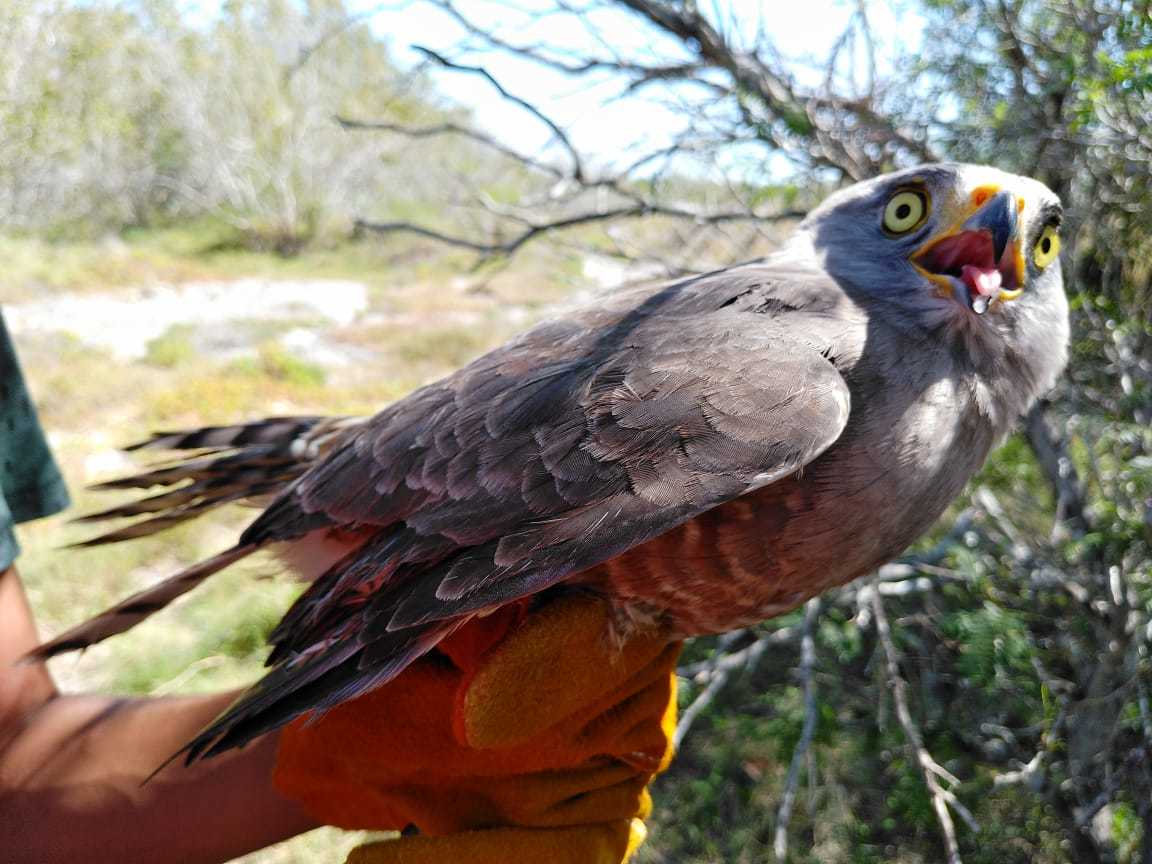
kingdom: Animalia
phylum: Chordata
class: Aves
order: Accipitriformes
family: Accipitridae
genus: Rupornis
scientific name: Rupornis magnirostris
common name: Roadside hawk
